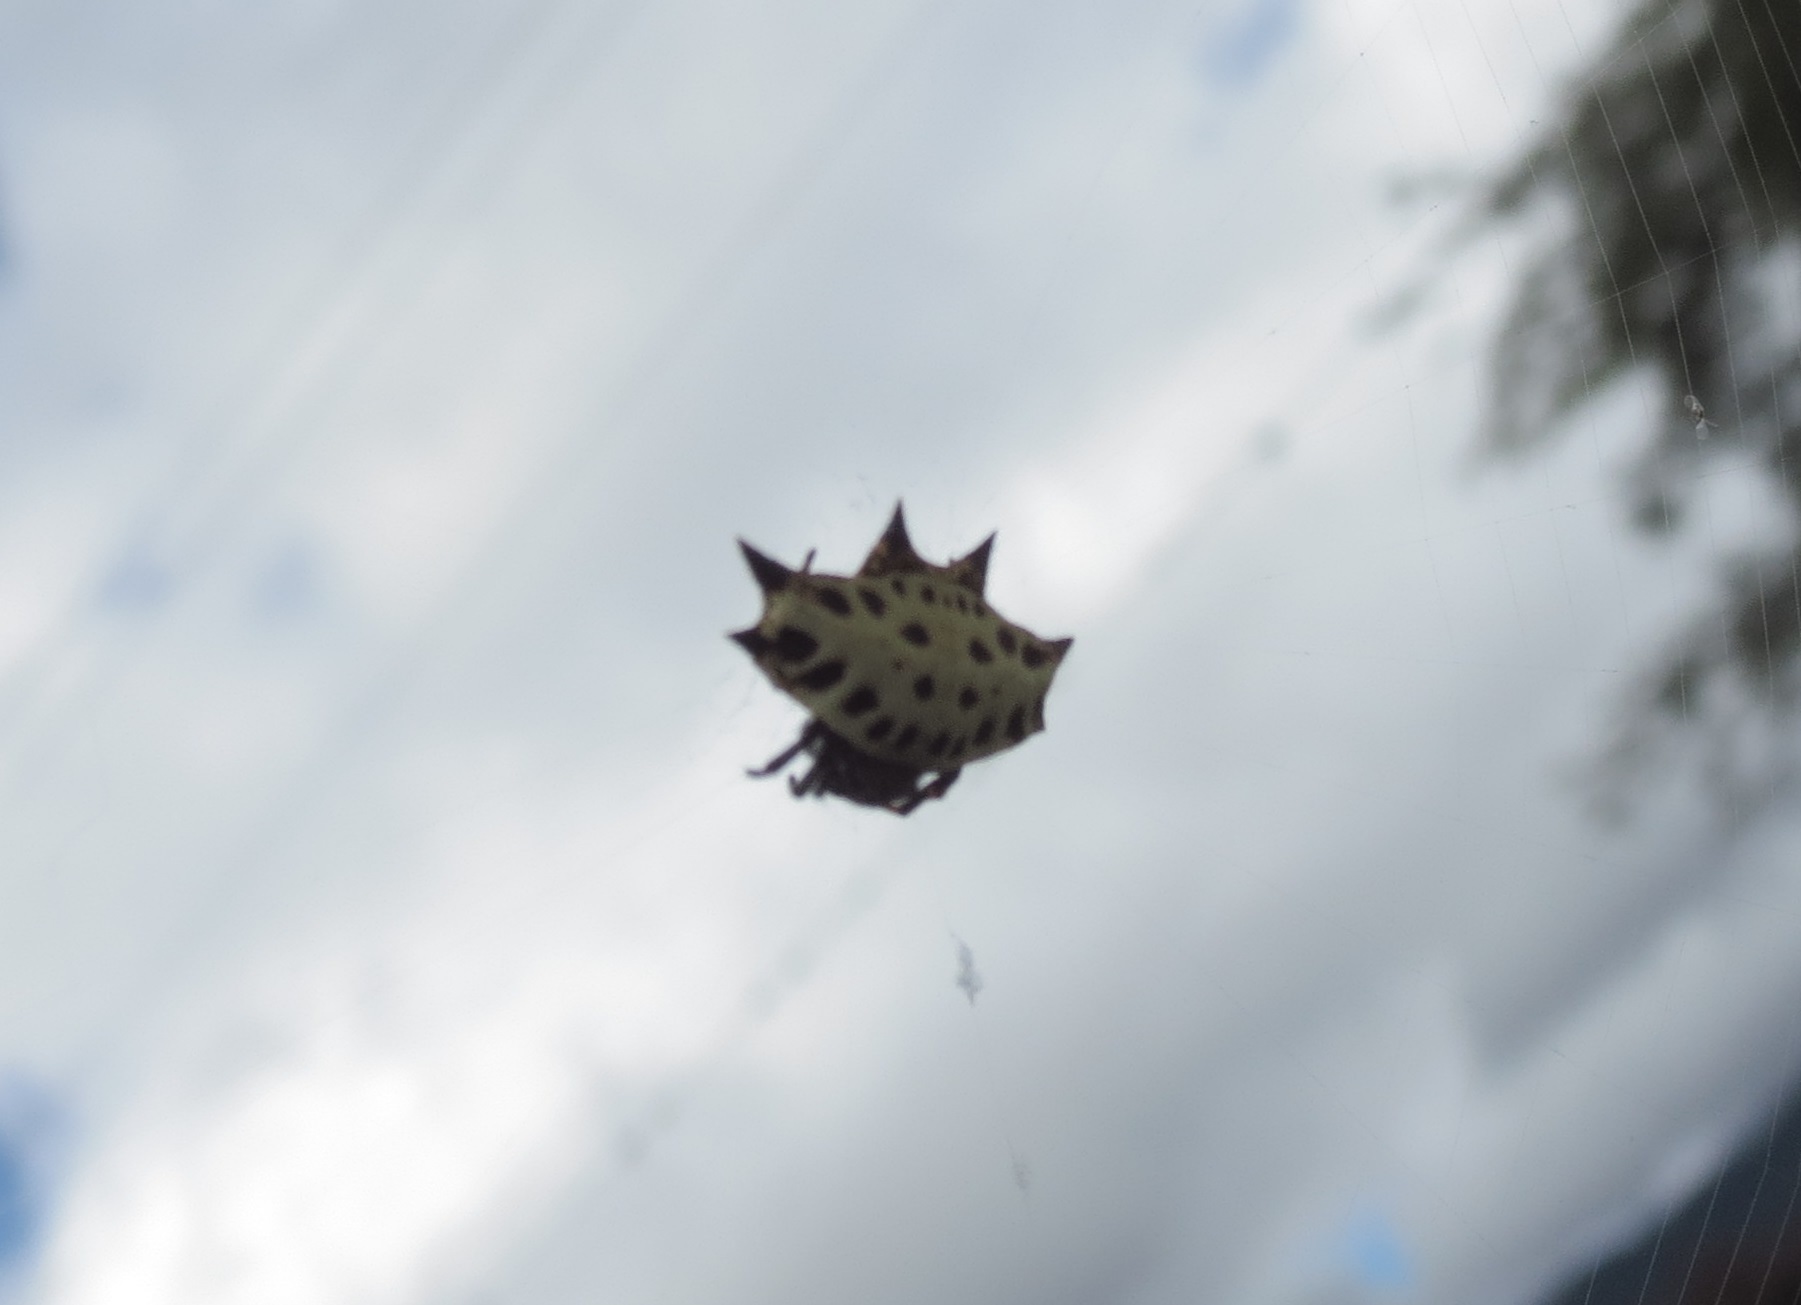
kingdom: Animalia
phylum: Arthropoda
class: Arachnida
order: Araneae
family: Araneidae
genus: Gasteracantha
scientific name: Gasteracantha cancriformis
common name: Orb weavers
